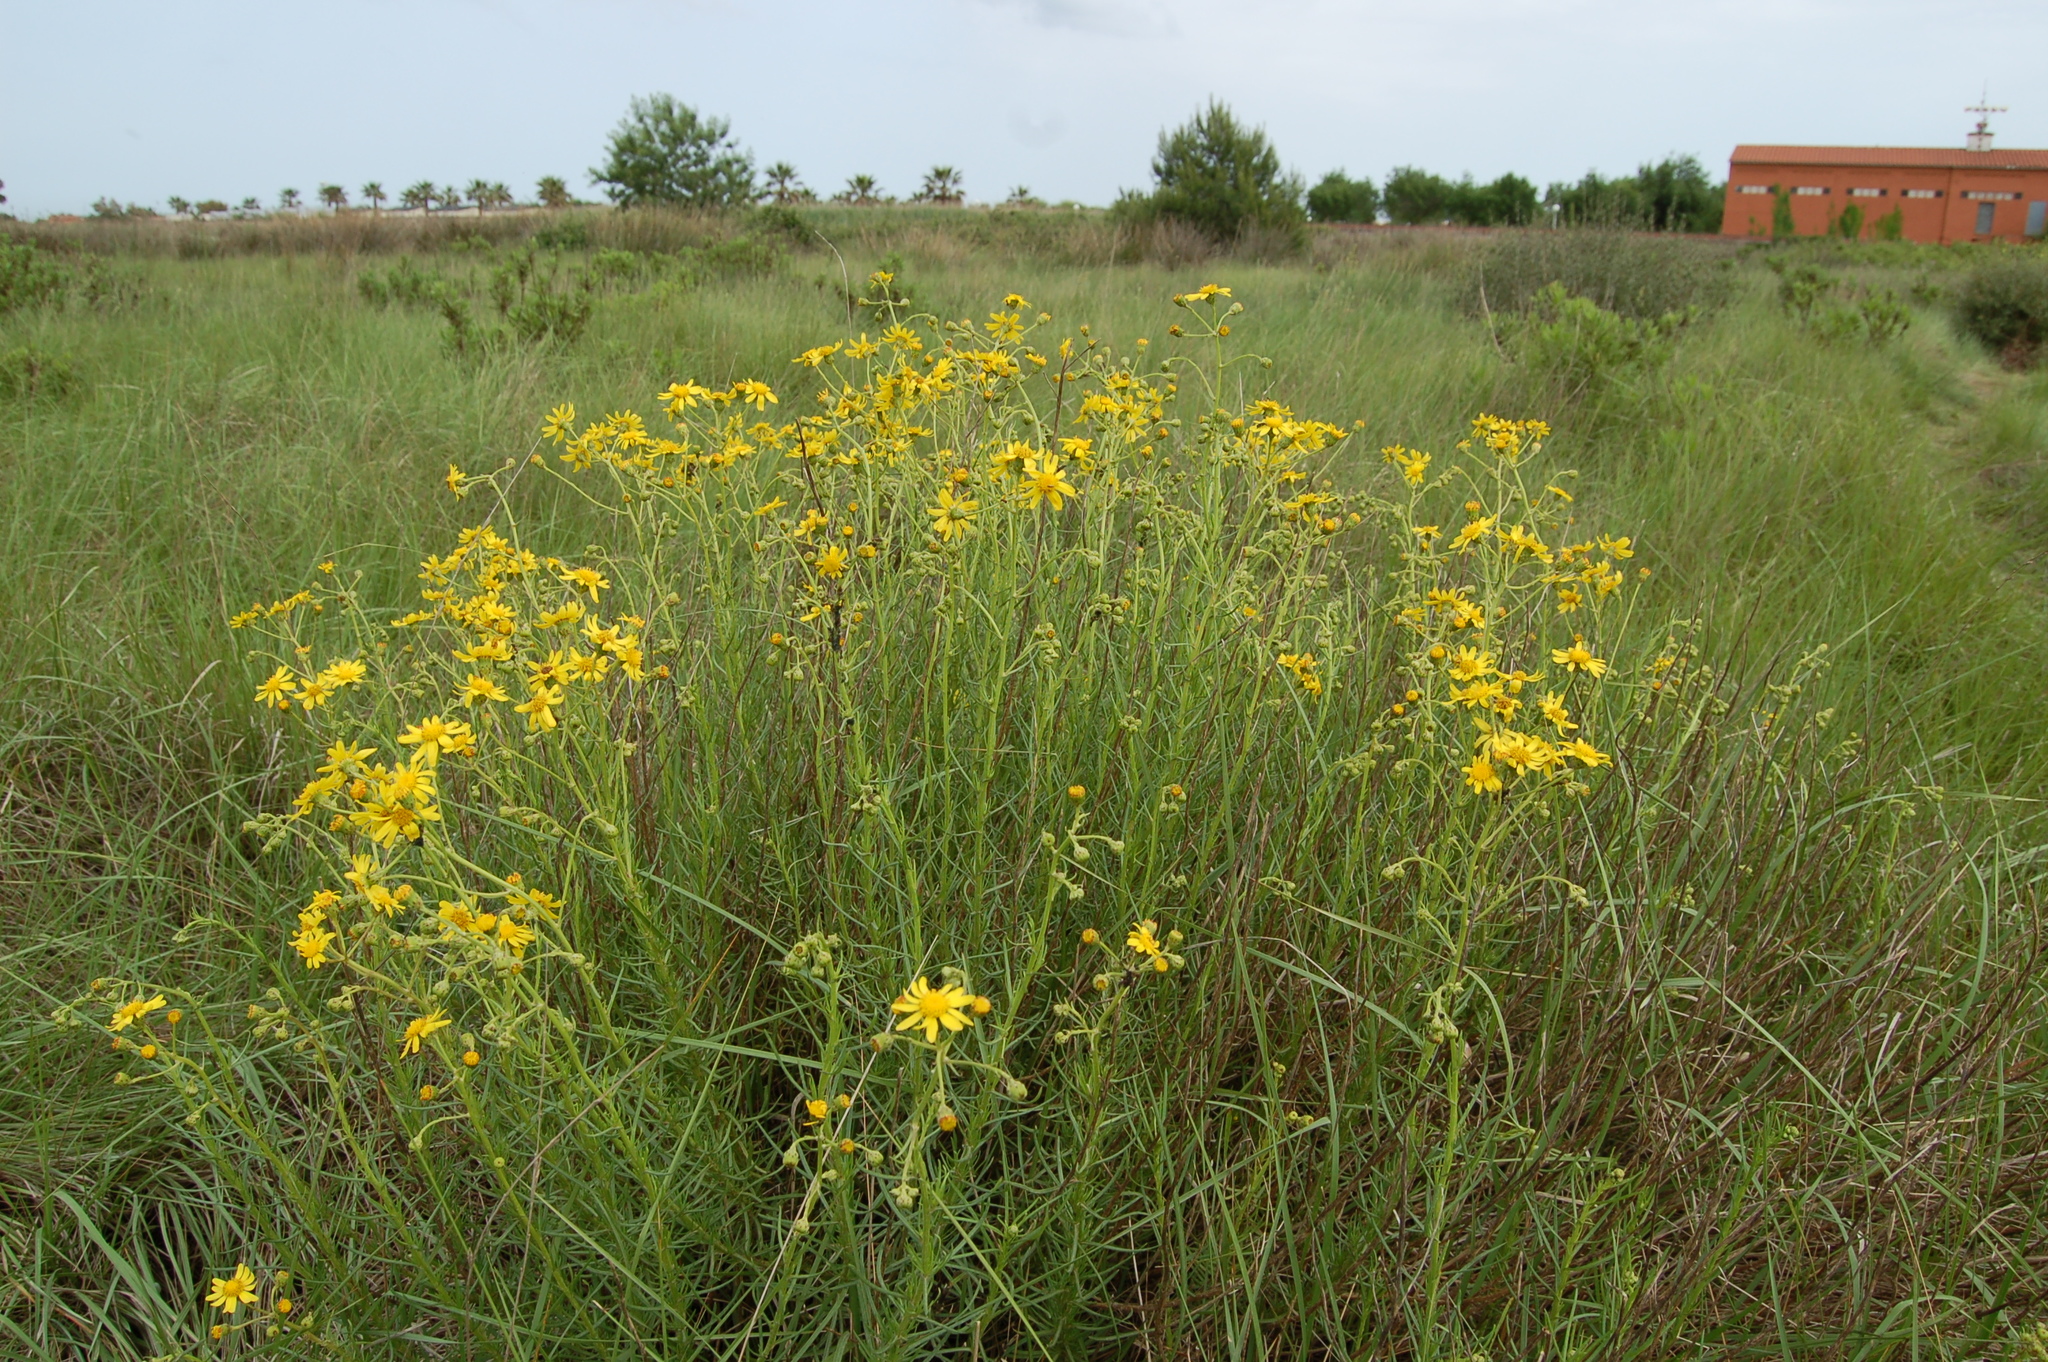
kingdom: Plantae
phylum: Tracheophyta
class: Magnoliopsida
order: Asterales
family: Asteraceae
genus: Senecio
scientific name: Senecio inaequidens
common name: Narrow-leaved ragwort
